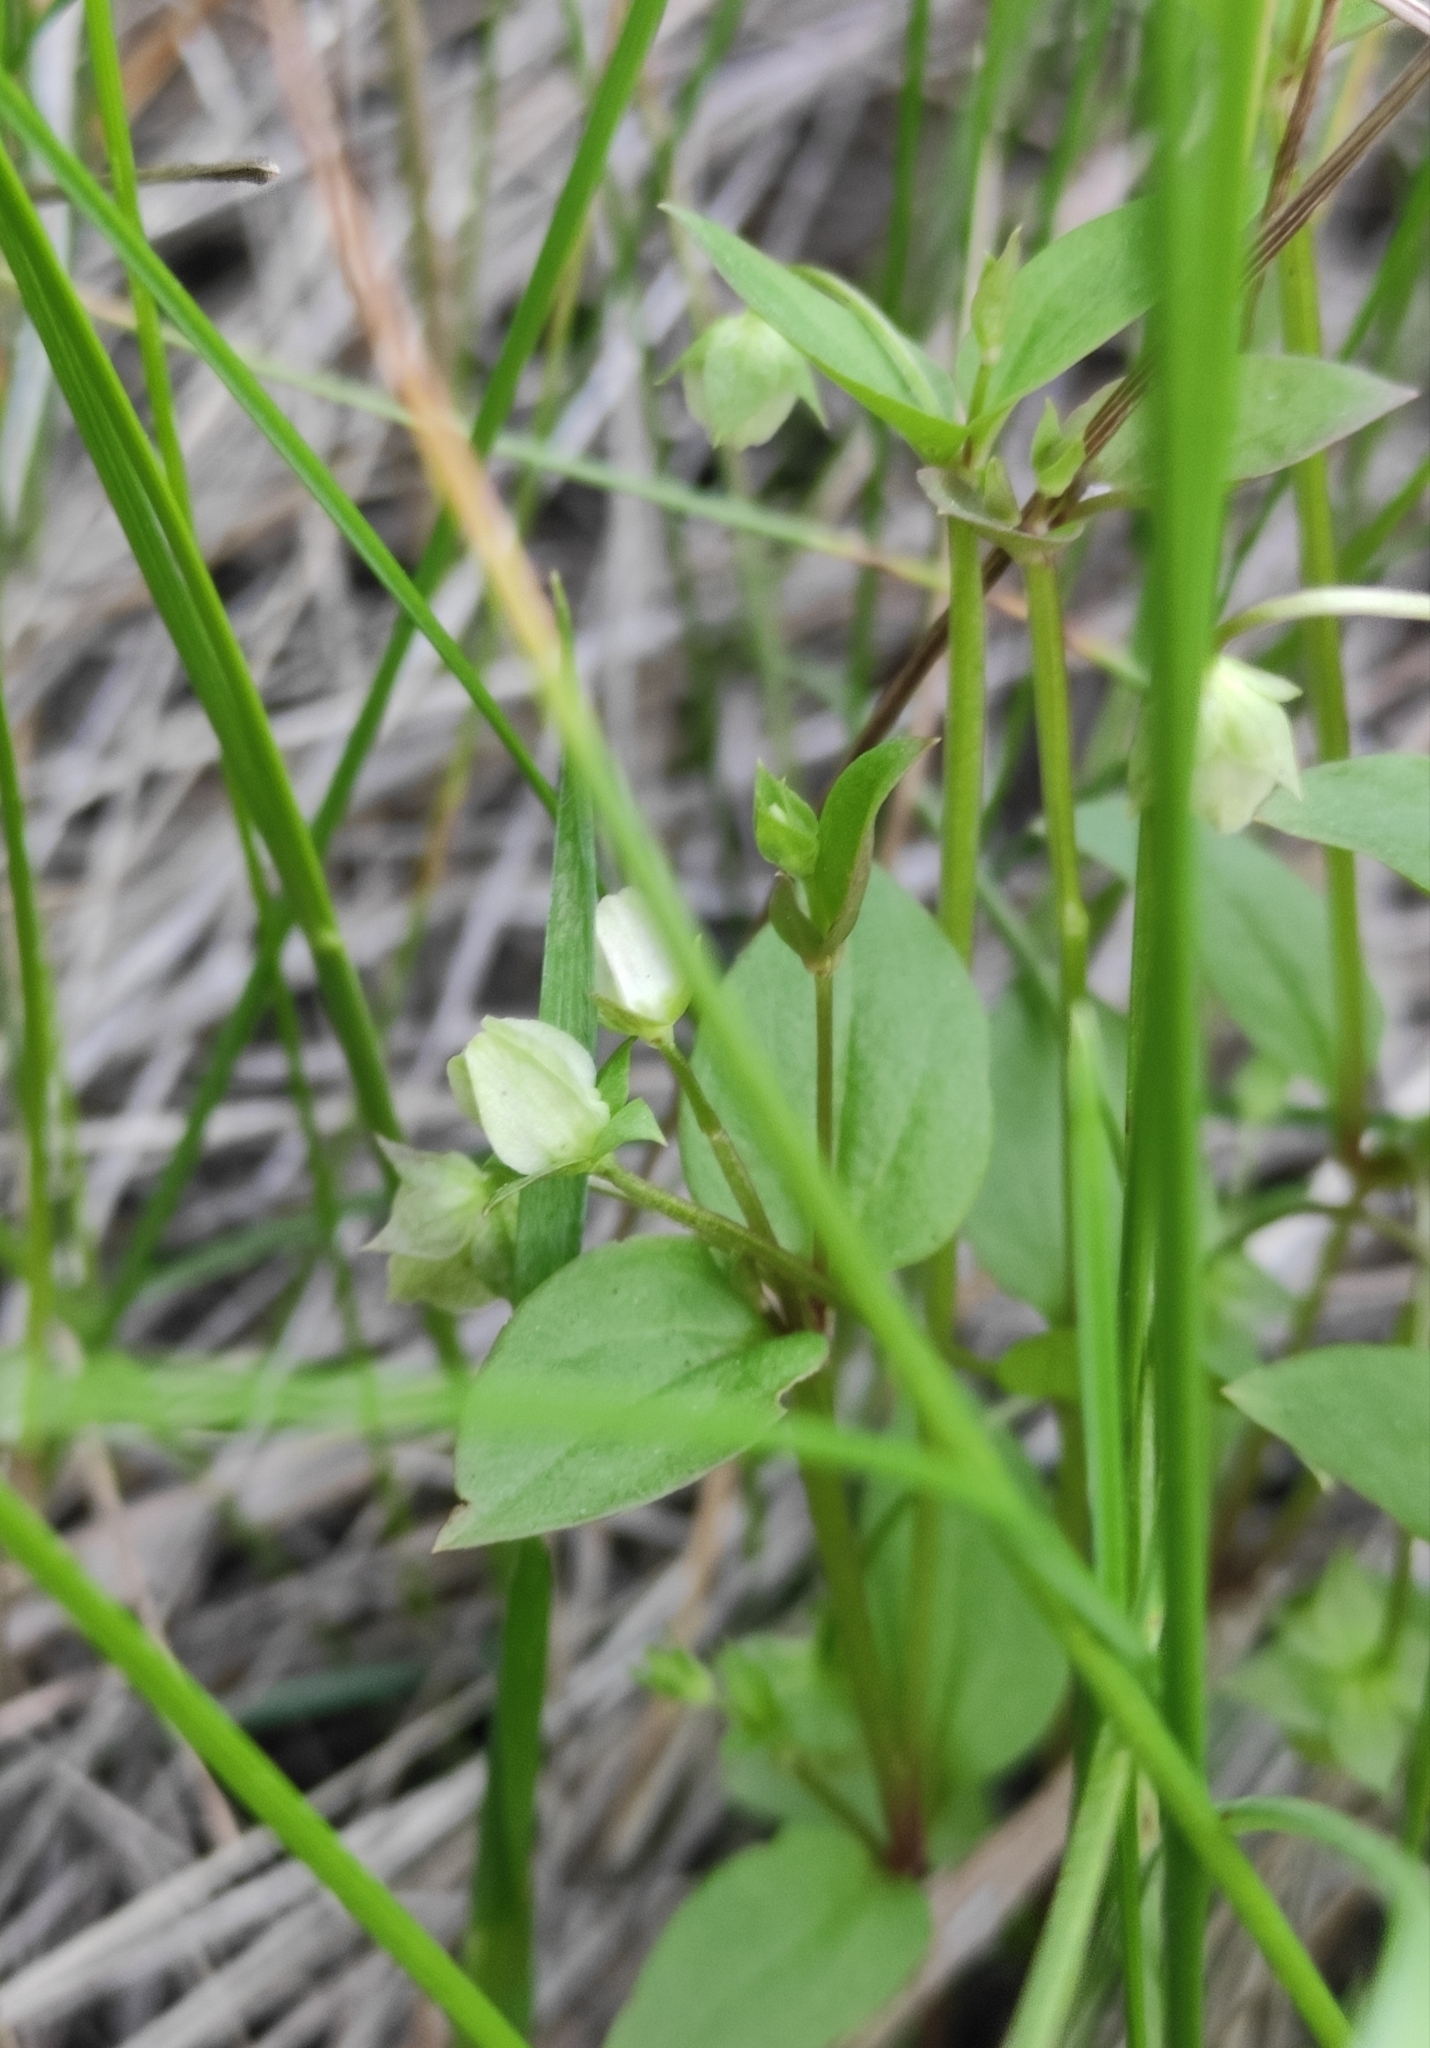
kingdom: Plantae
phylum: Tracheophyta
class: Magnoliopsida
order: Gentianales
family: Gentianaceae
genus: Swertia
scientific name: Swertia dichotoma
